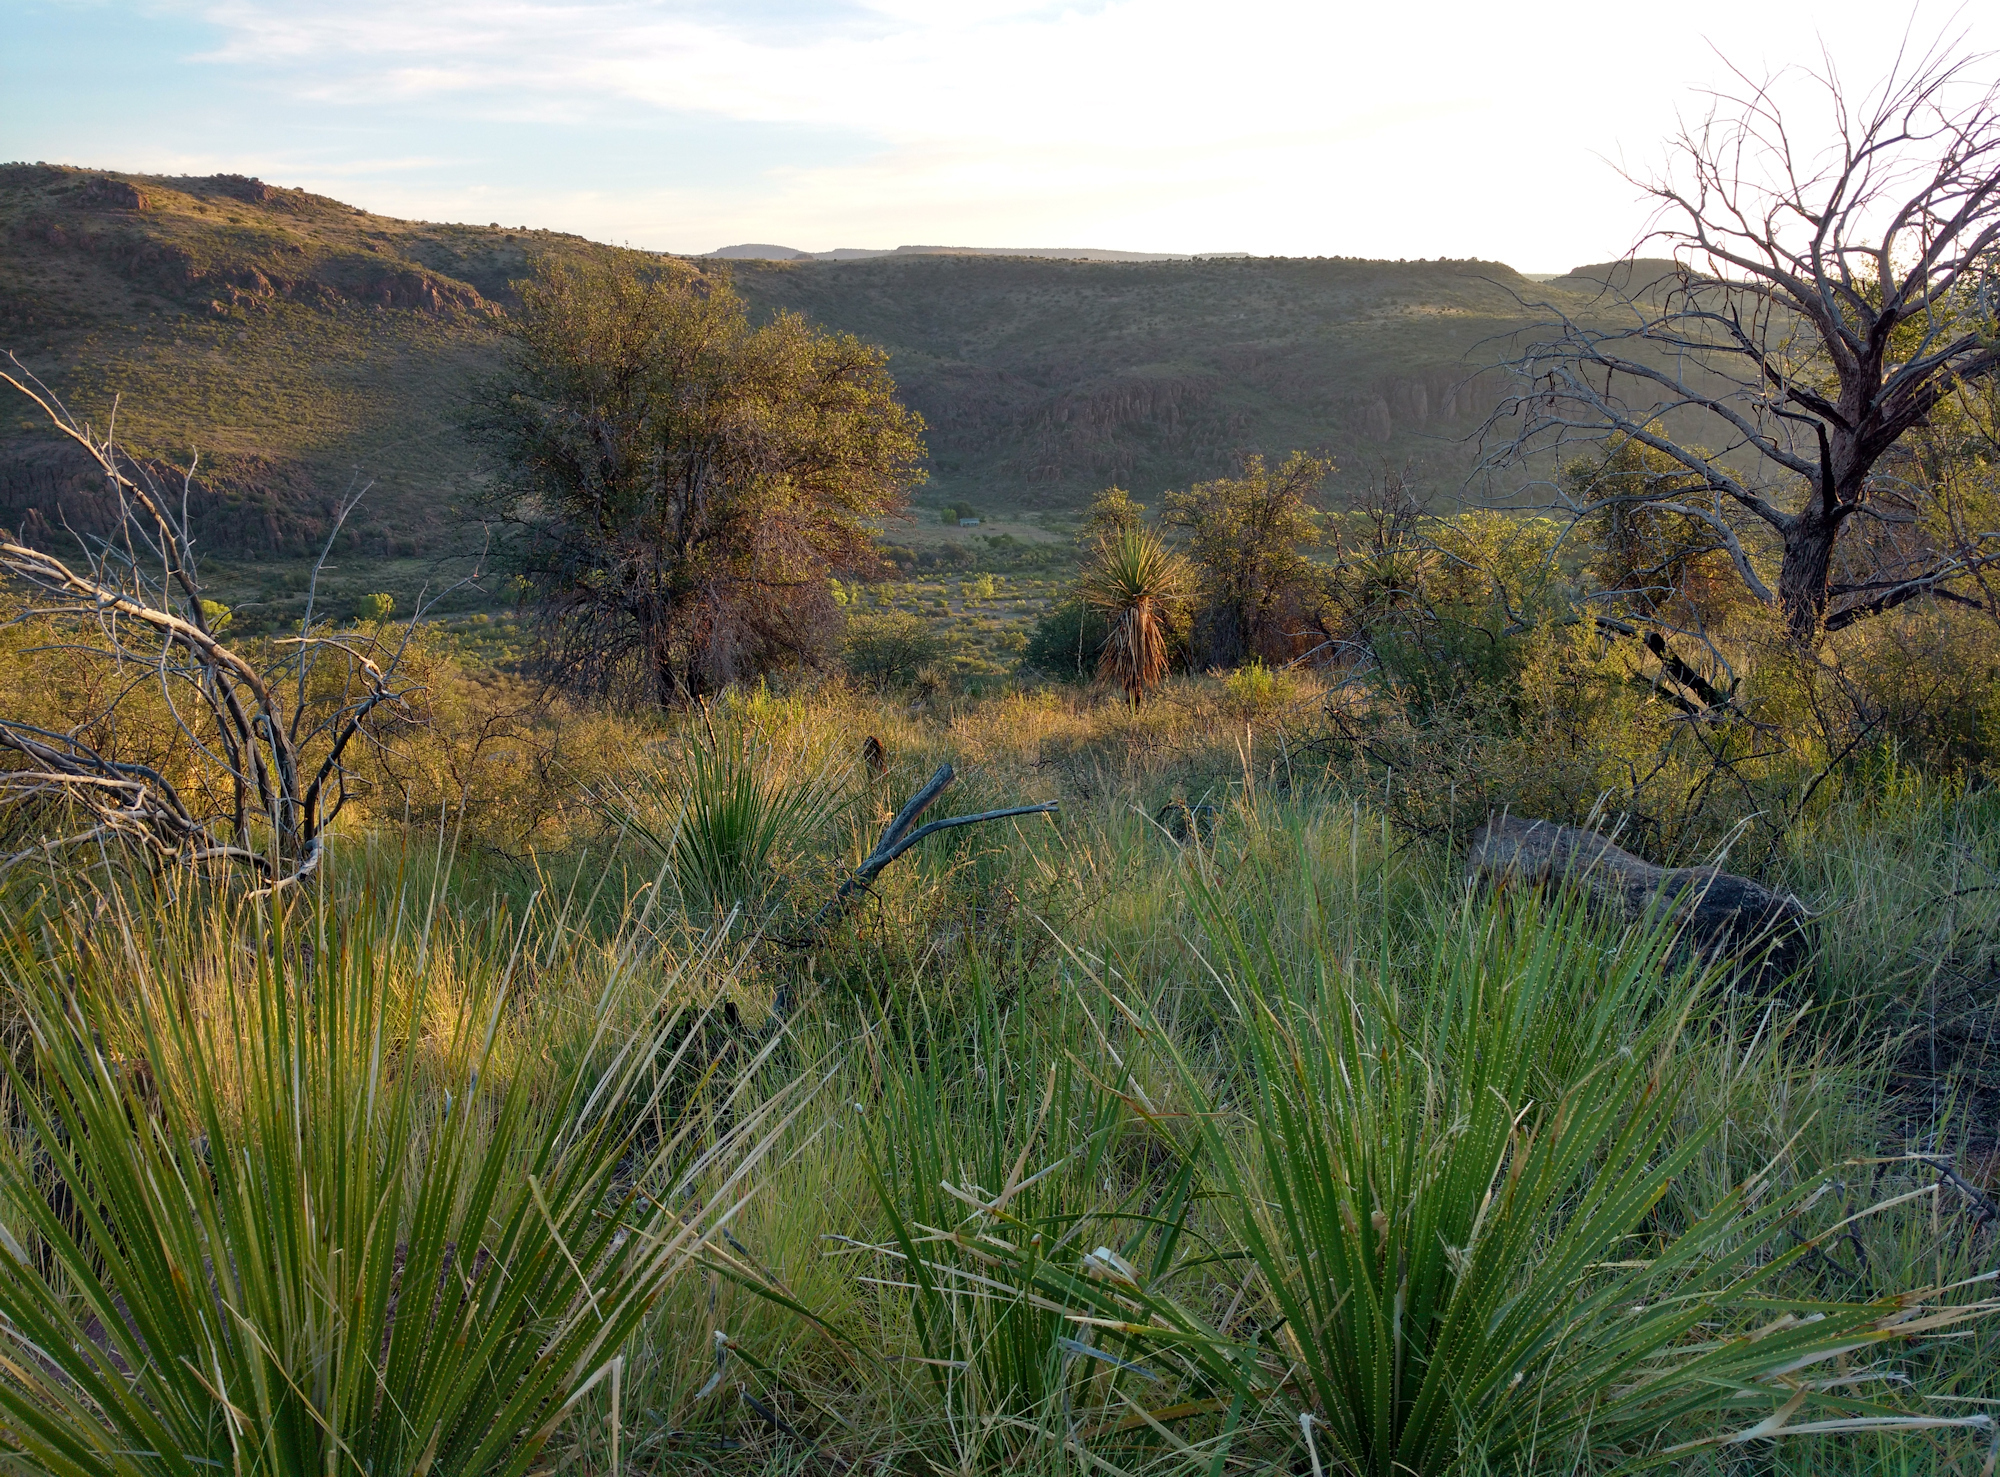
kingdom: Plantae
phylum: Tracheophyta
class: Liliopsida
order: Asparagales
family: Asparagaceae
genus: Dasylirion
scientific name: Dasylirion leiophyllum
